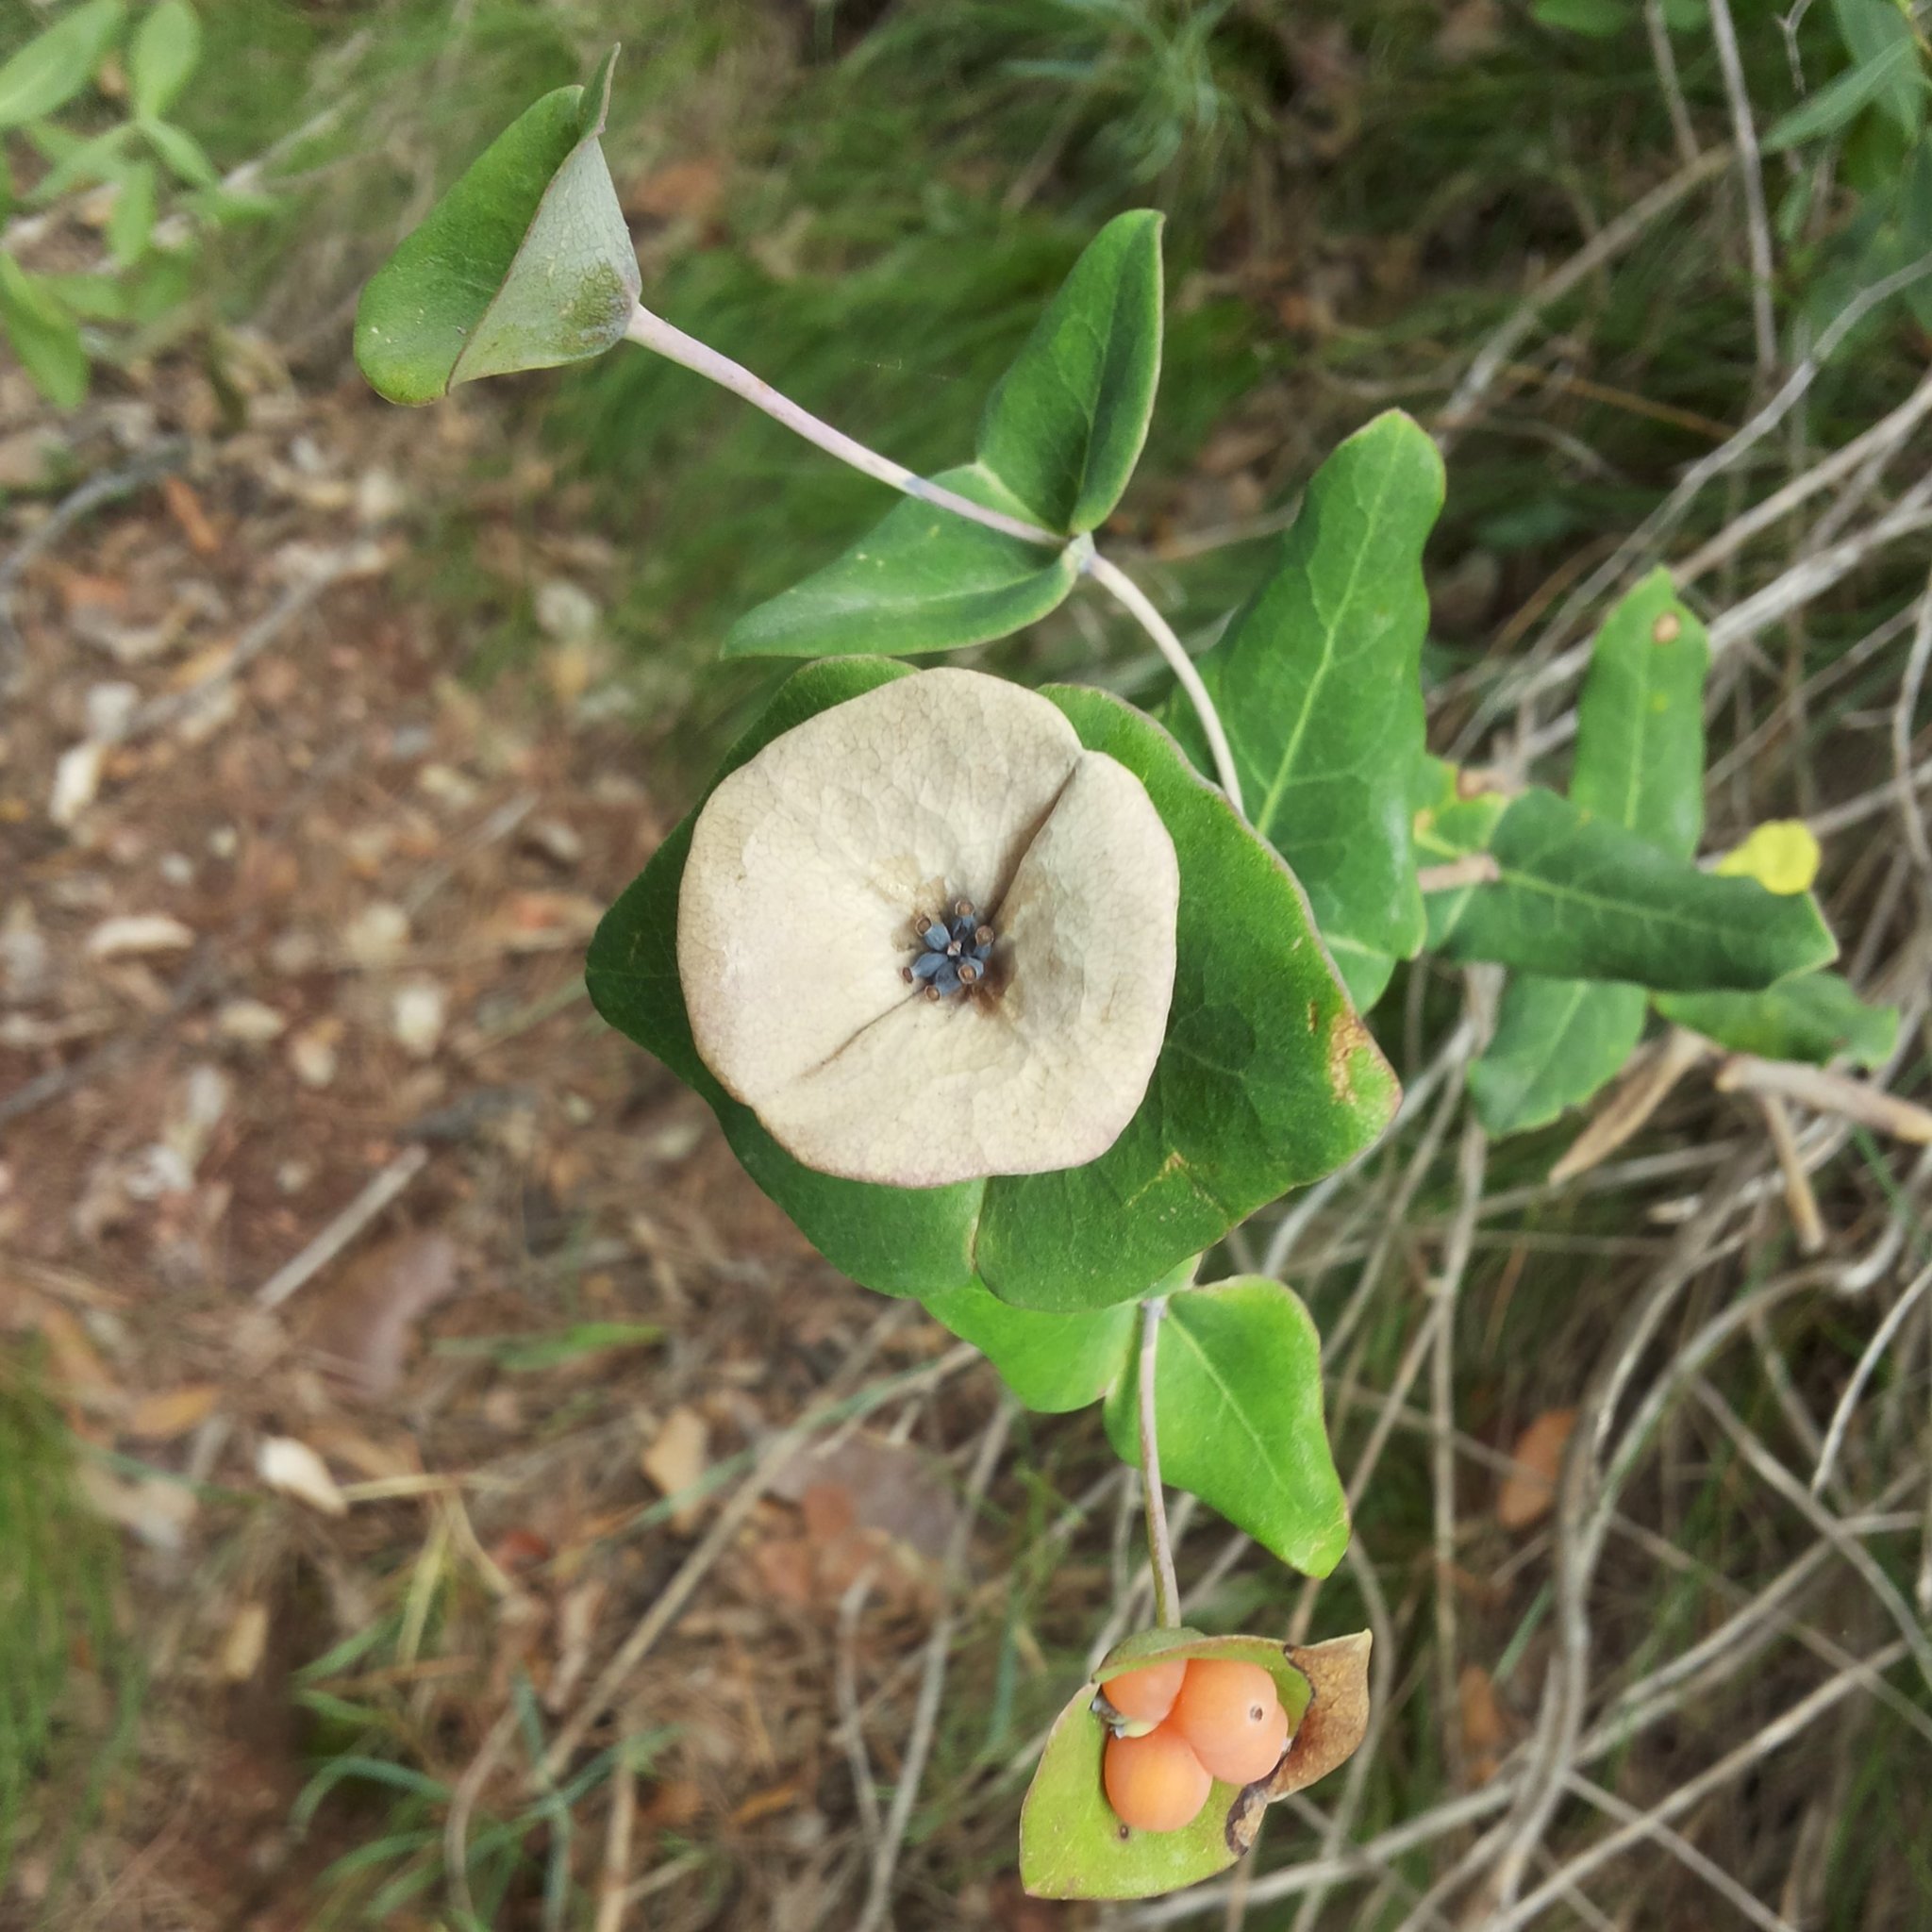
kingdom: Plantae
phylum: Tracheophyta
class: Magnoliopsida
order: Dipsacales
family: Caprifoliaceae
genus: Lonicera
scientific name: Lonicera implexa
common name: Minorca honeysuckle
